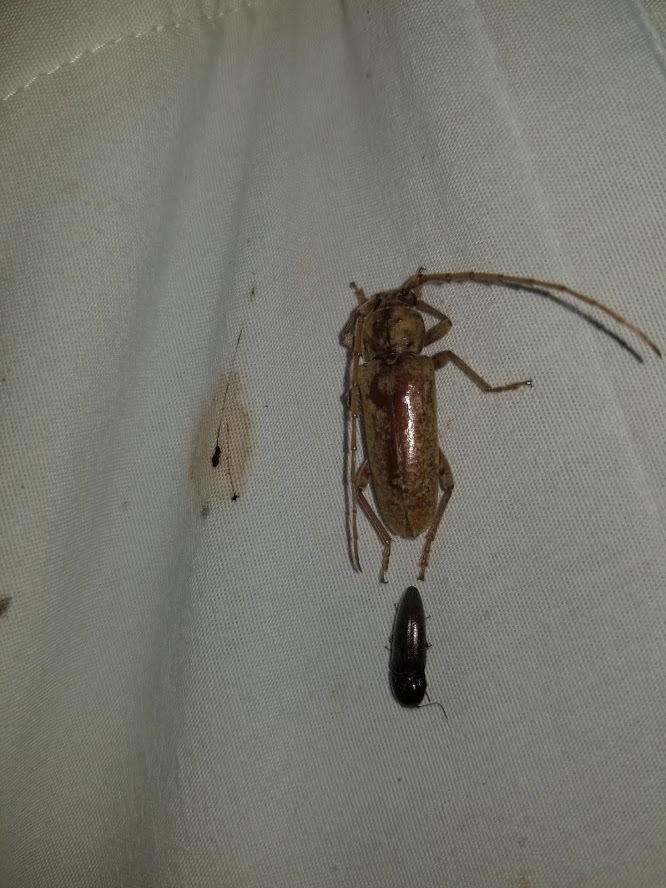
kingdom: Animalia
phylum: Arthropoda
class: Insecta
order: Coleoptera
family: Cerambycidae
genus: Enaphalodes
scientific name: Enaphalodes rufulus
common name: Red oak borer
